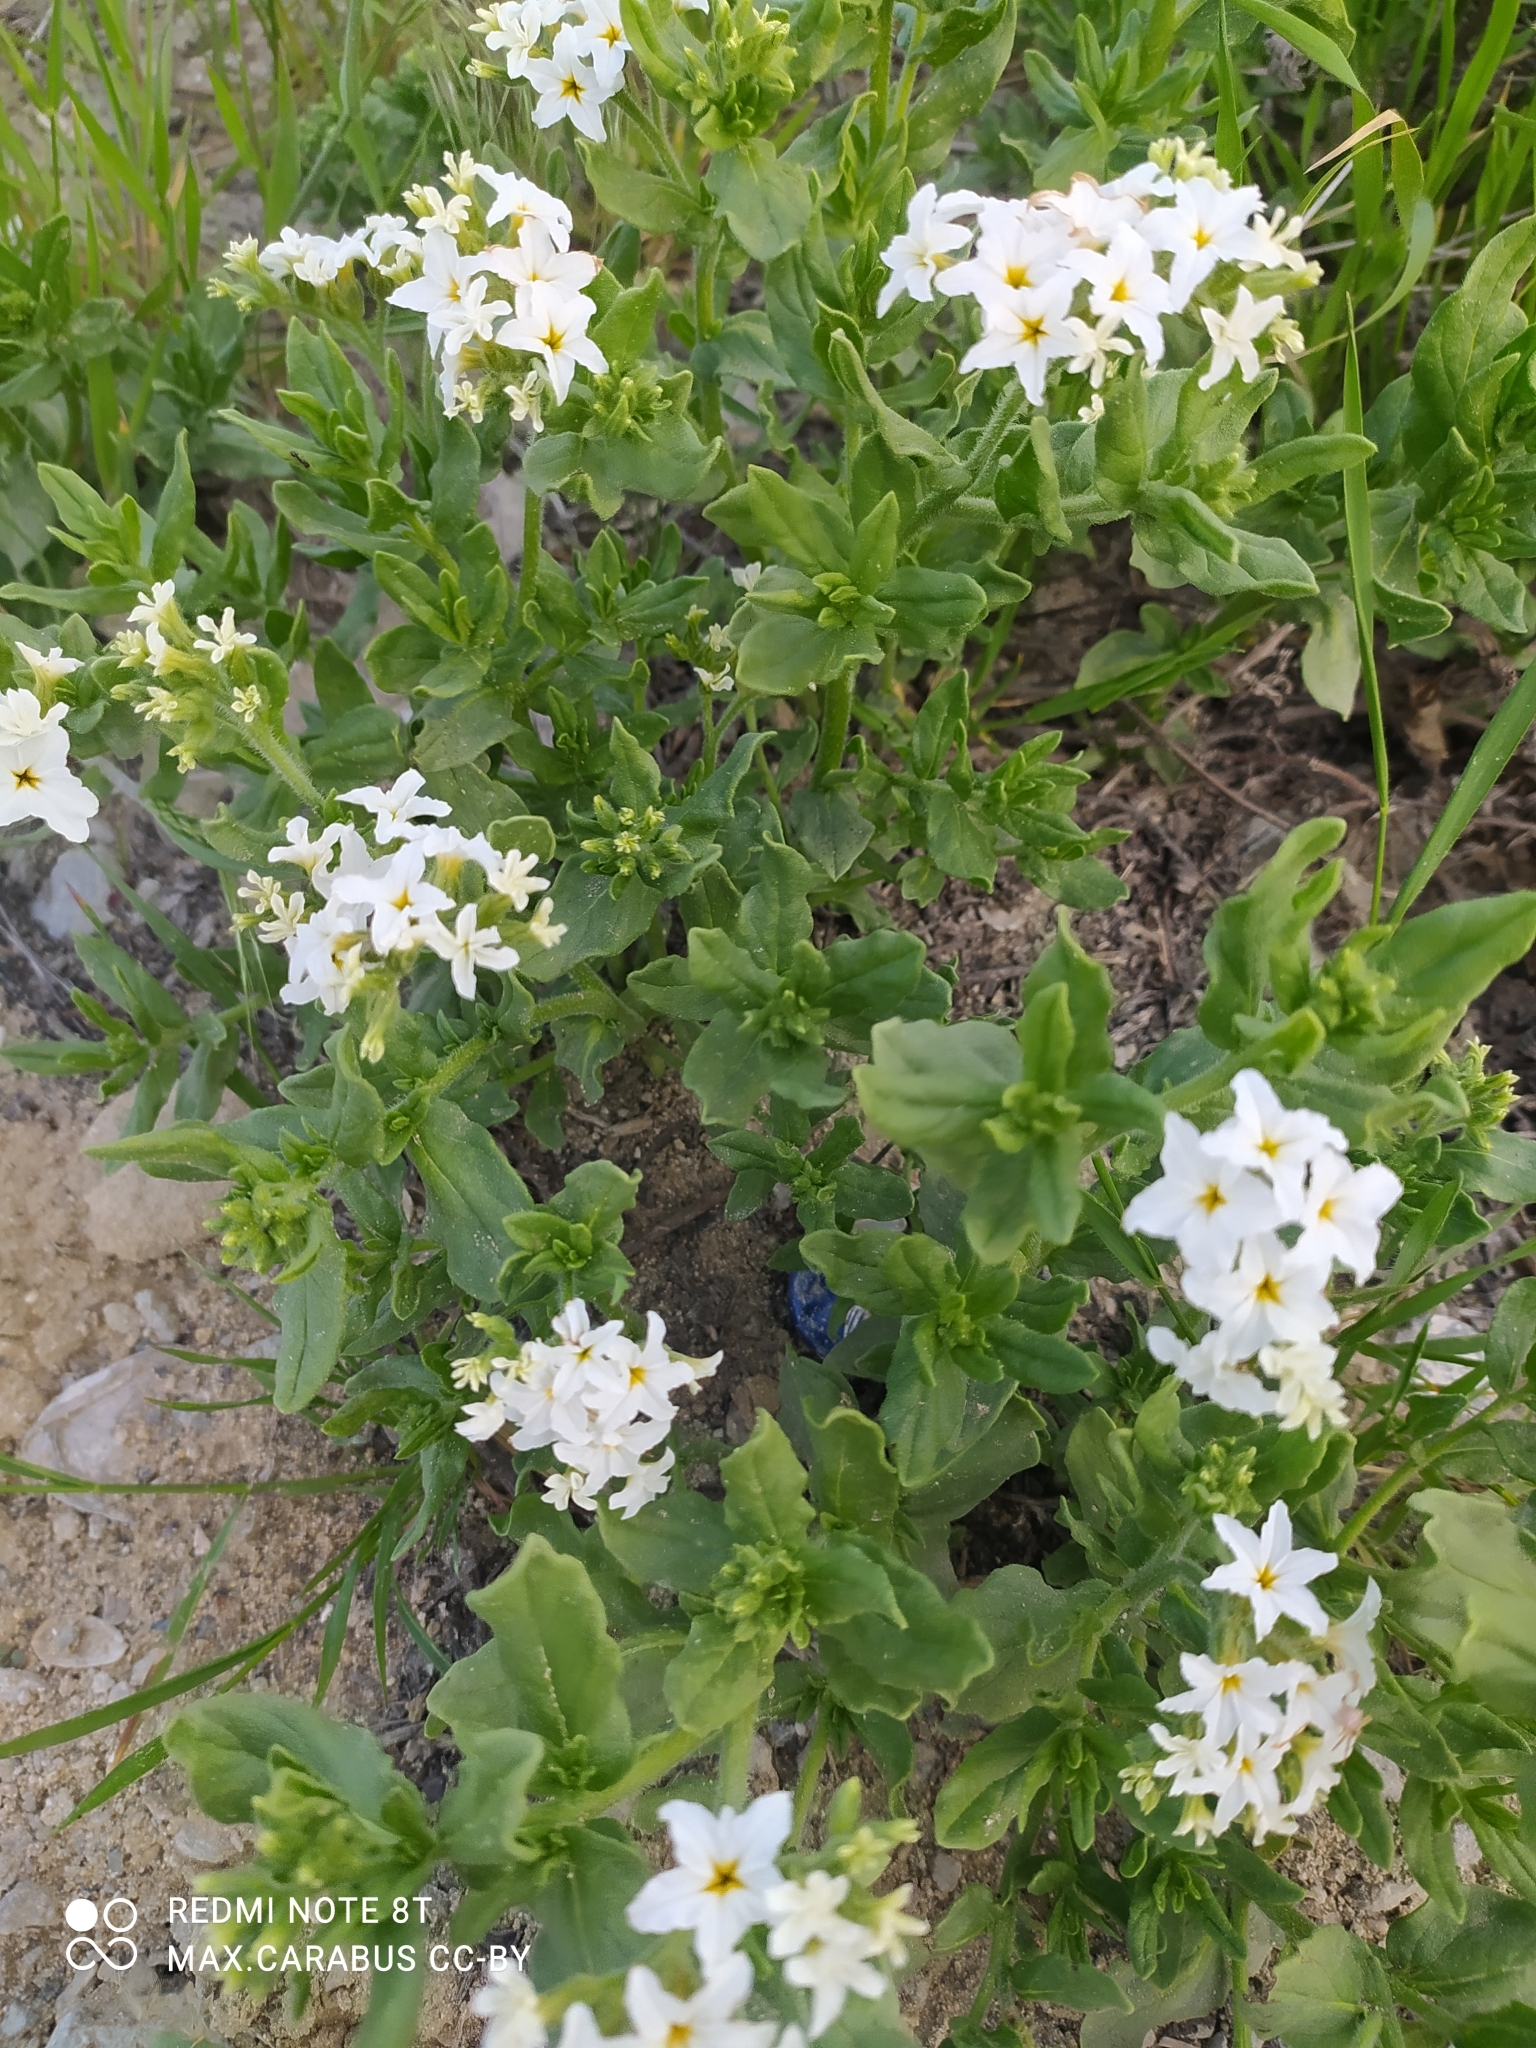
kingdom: Plantae
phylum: Tracheophyta
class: Magnoliopsida
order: Boraginales
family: Heliotropiaceae
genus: Tournefortia
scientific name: Tournefortia sibirica
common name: Siberian sea rosemary
